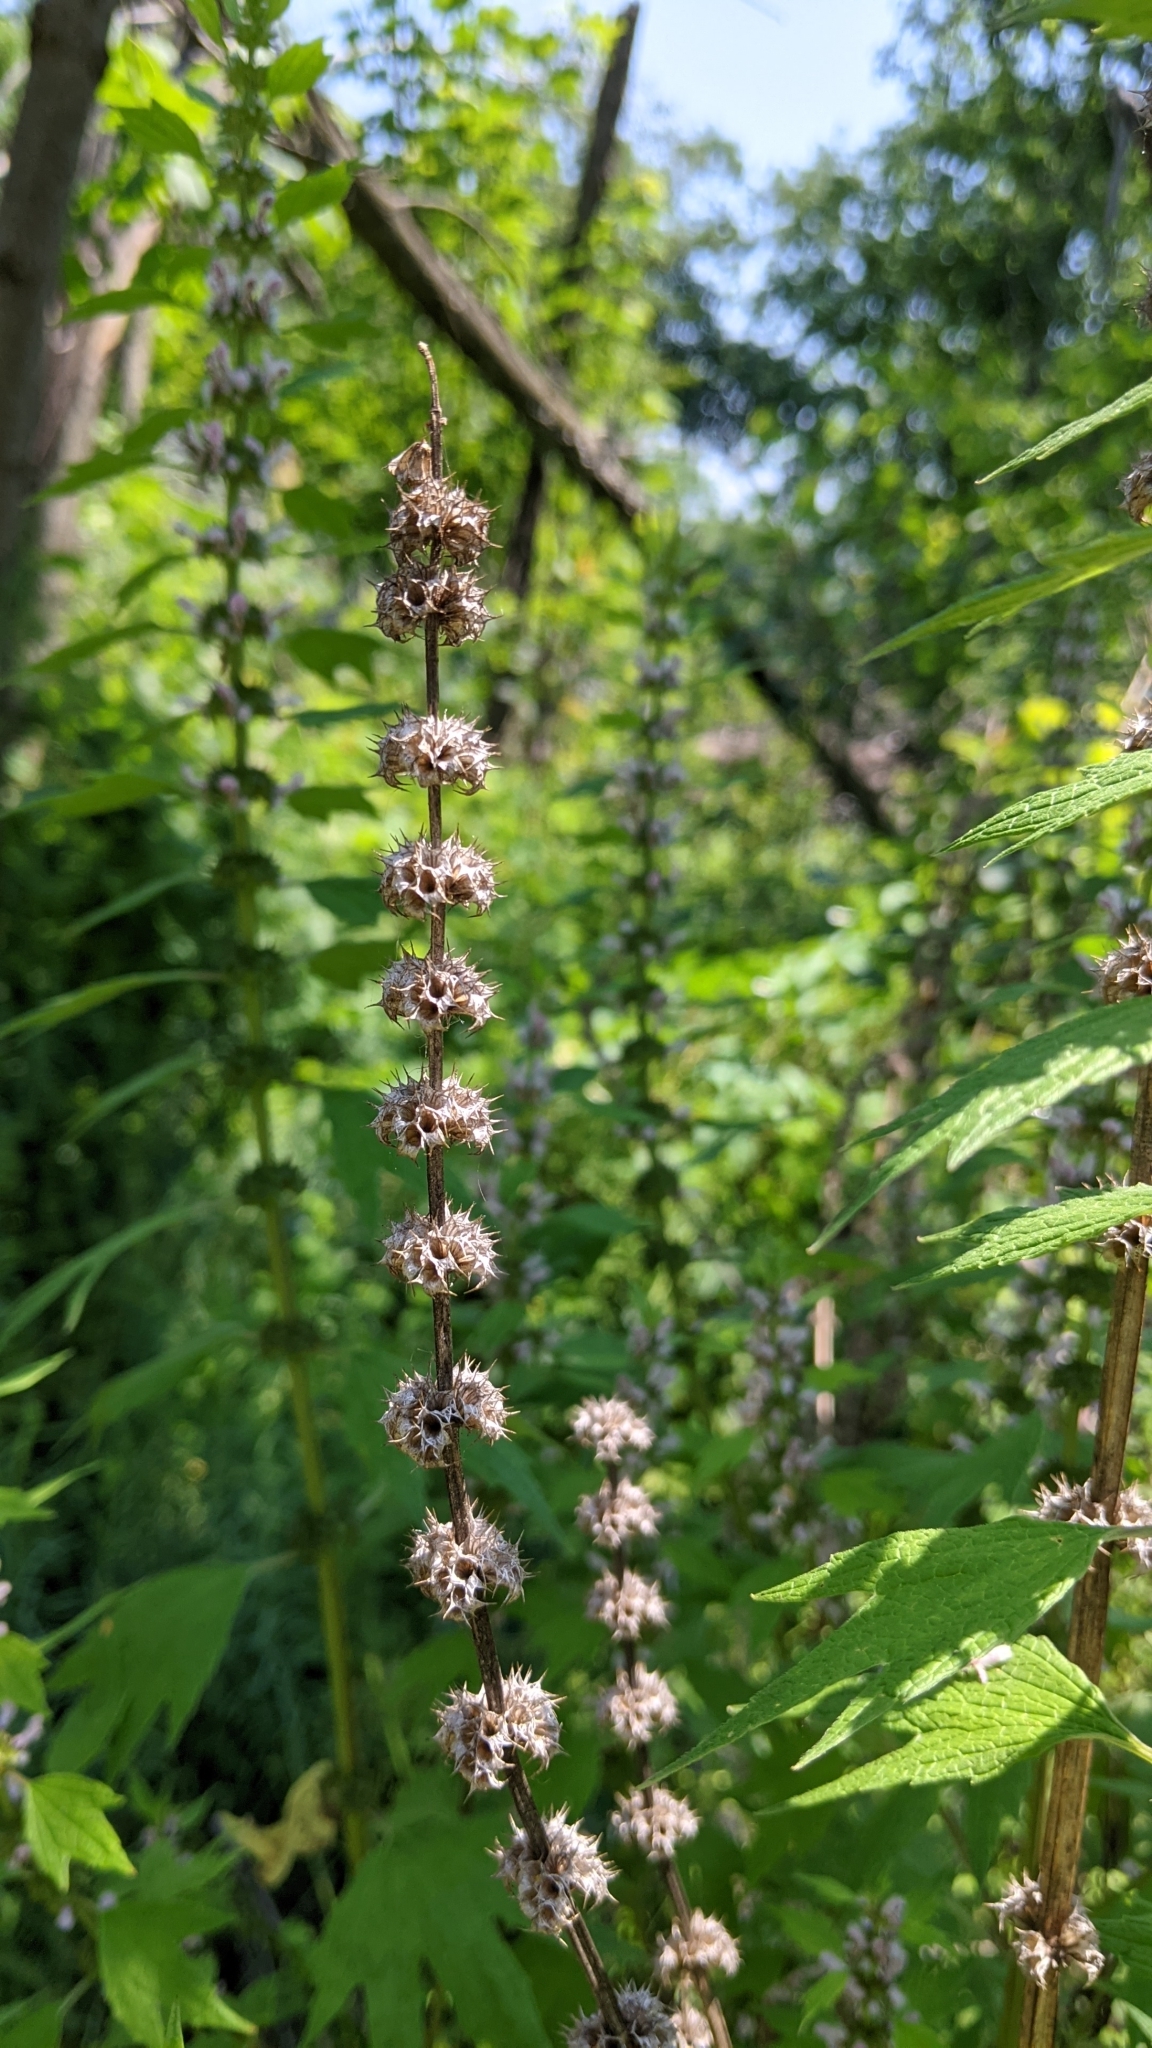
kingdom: Plantae
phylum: Tracheophyta
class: Magnoliopsida
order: Lamiales
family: Lamiaceae
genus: Leonurus
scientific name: Leonurus cardiaca
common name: Motherwort
